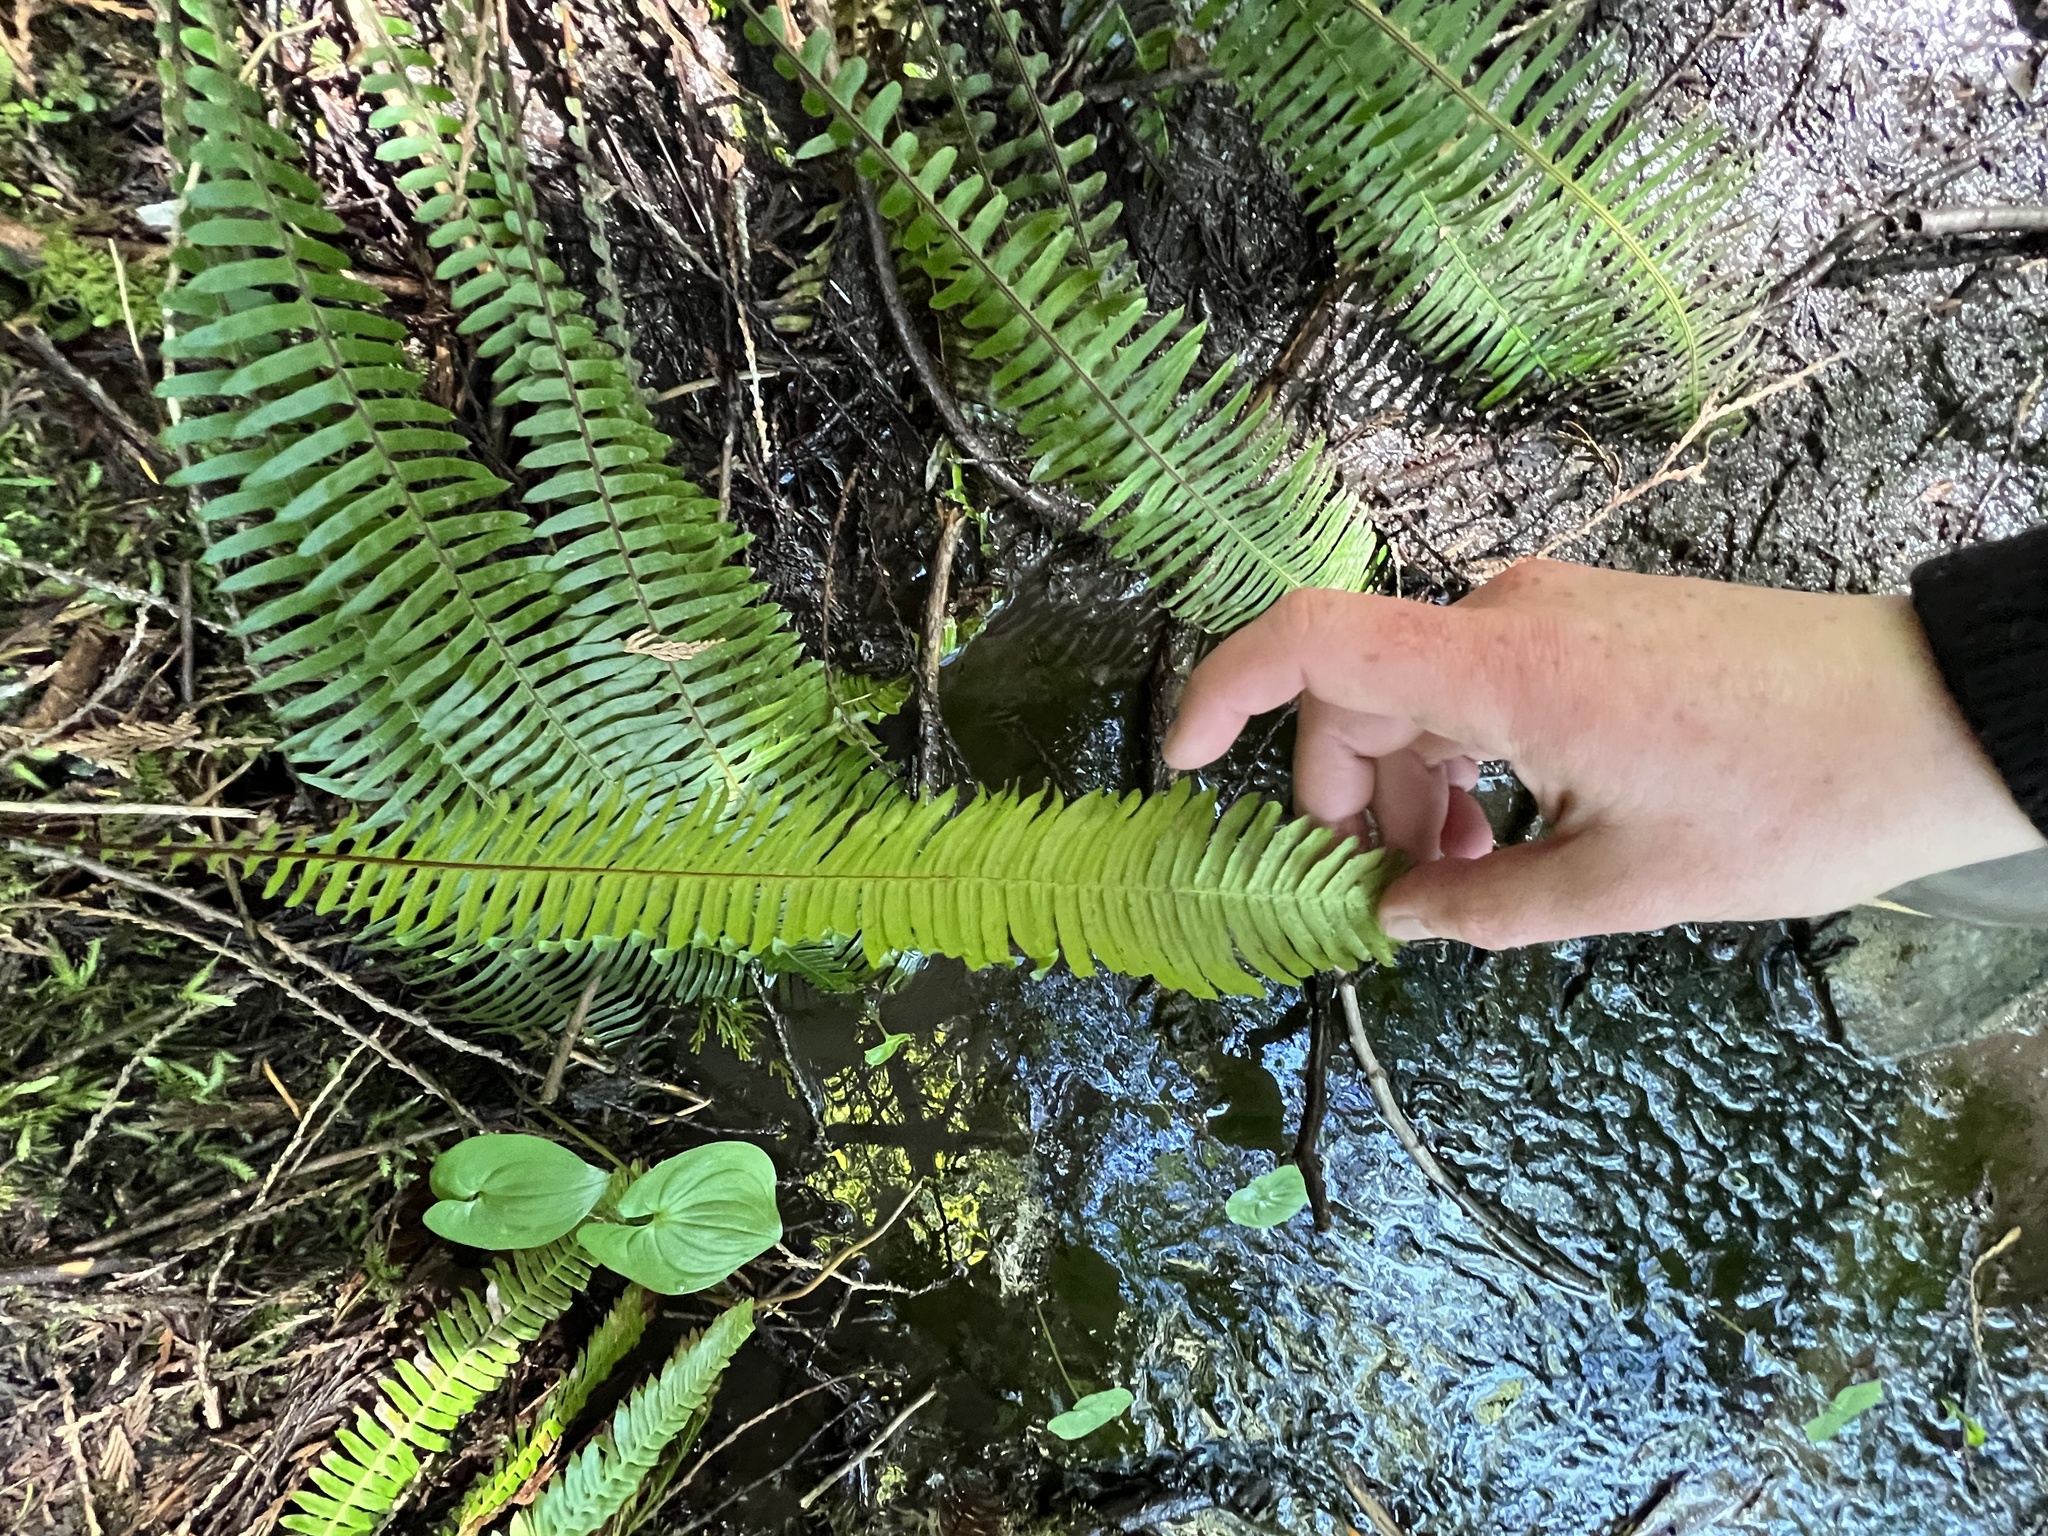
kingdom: Plantae
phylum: Tracheophyta
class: Polypodiopsida
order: Polypodiales
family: Blechnaceae
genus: Struthiopteris
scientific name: Struthiopteris spicant
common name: Deer fern
